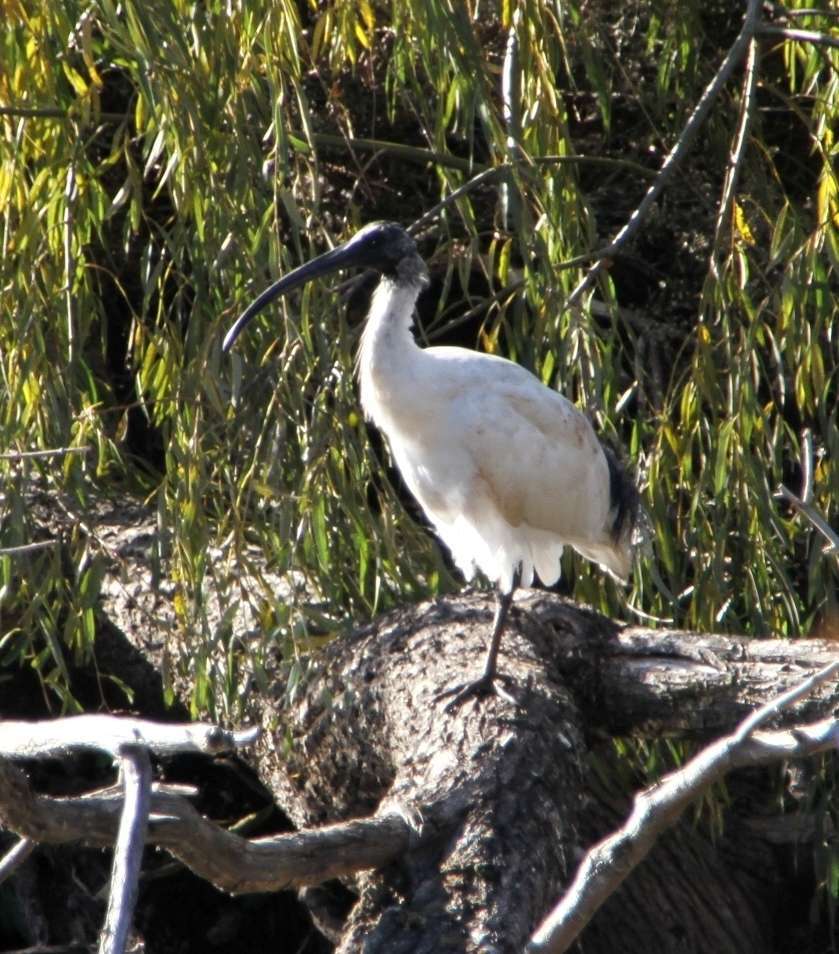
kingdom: Animalia
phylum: Chordata
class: Aves
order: Pelecaniformes
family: Threskiornithidae
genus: Threskiornis
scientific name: Threskiornis molucca
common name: Australian white ibis
